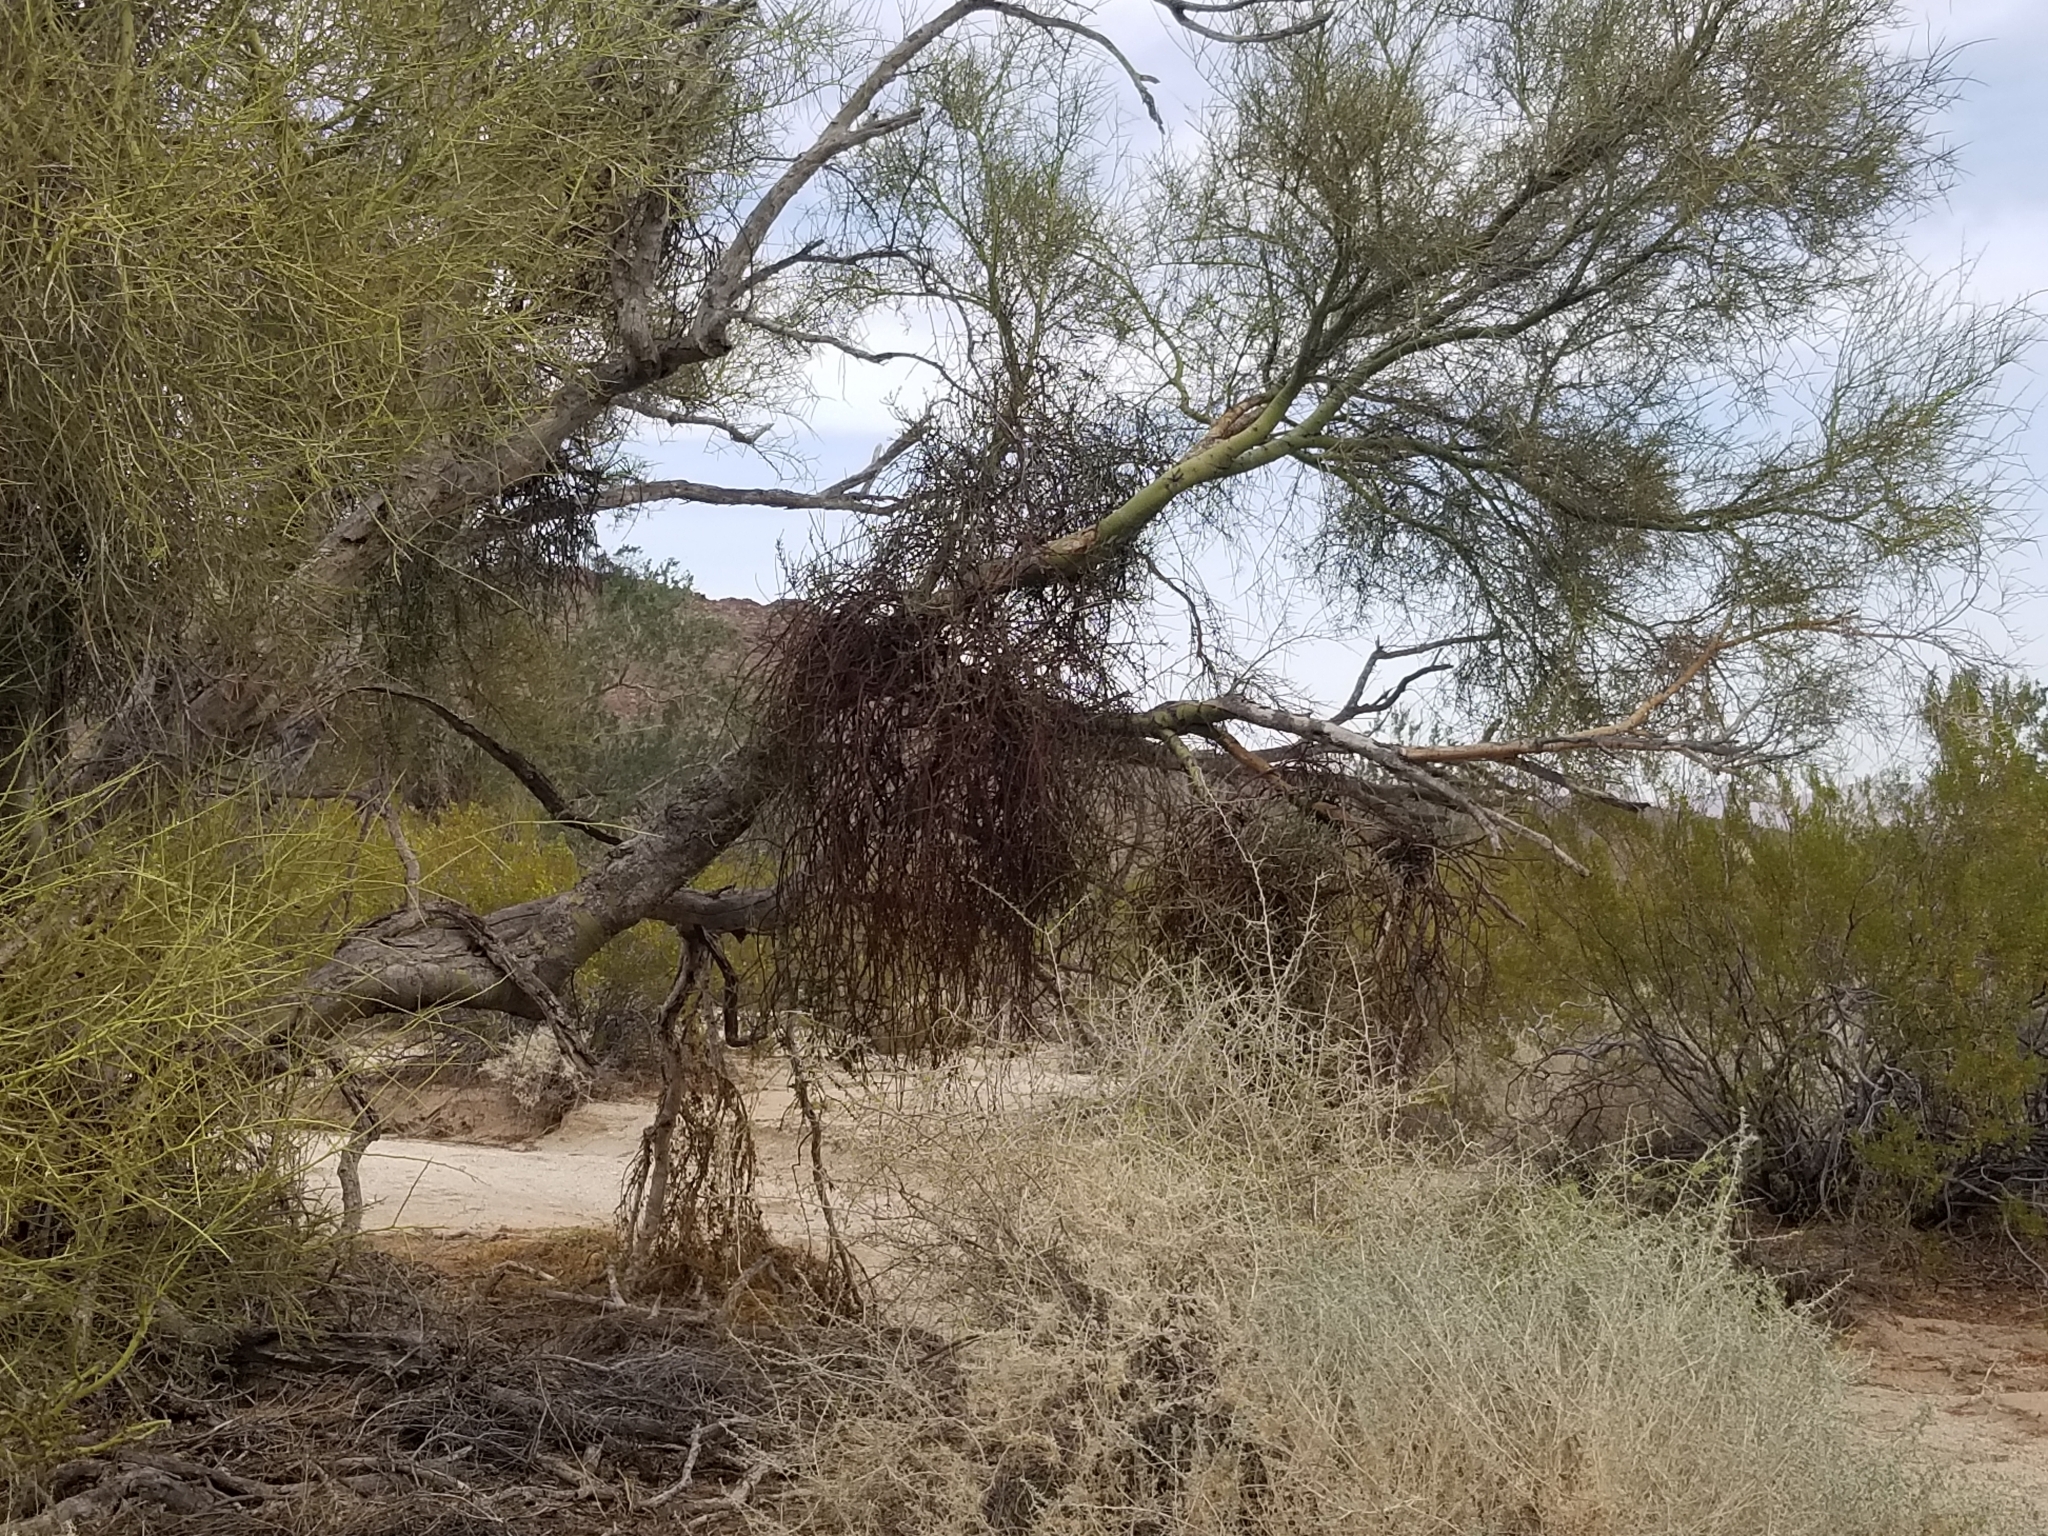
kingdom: Plantae
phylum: Tracheophyta
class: Magnoliopsida
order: Santalales
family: Viscaceae
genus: Phoradendron
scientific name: Phoradendron californicum
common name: Acacia mistletoe
